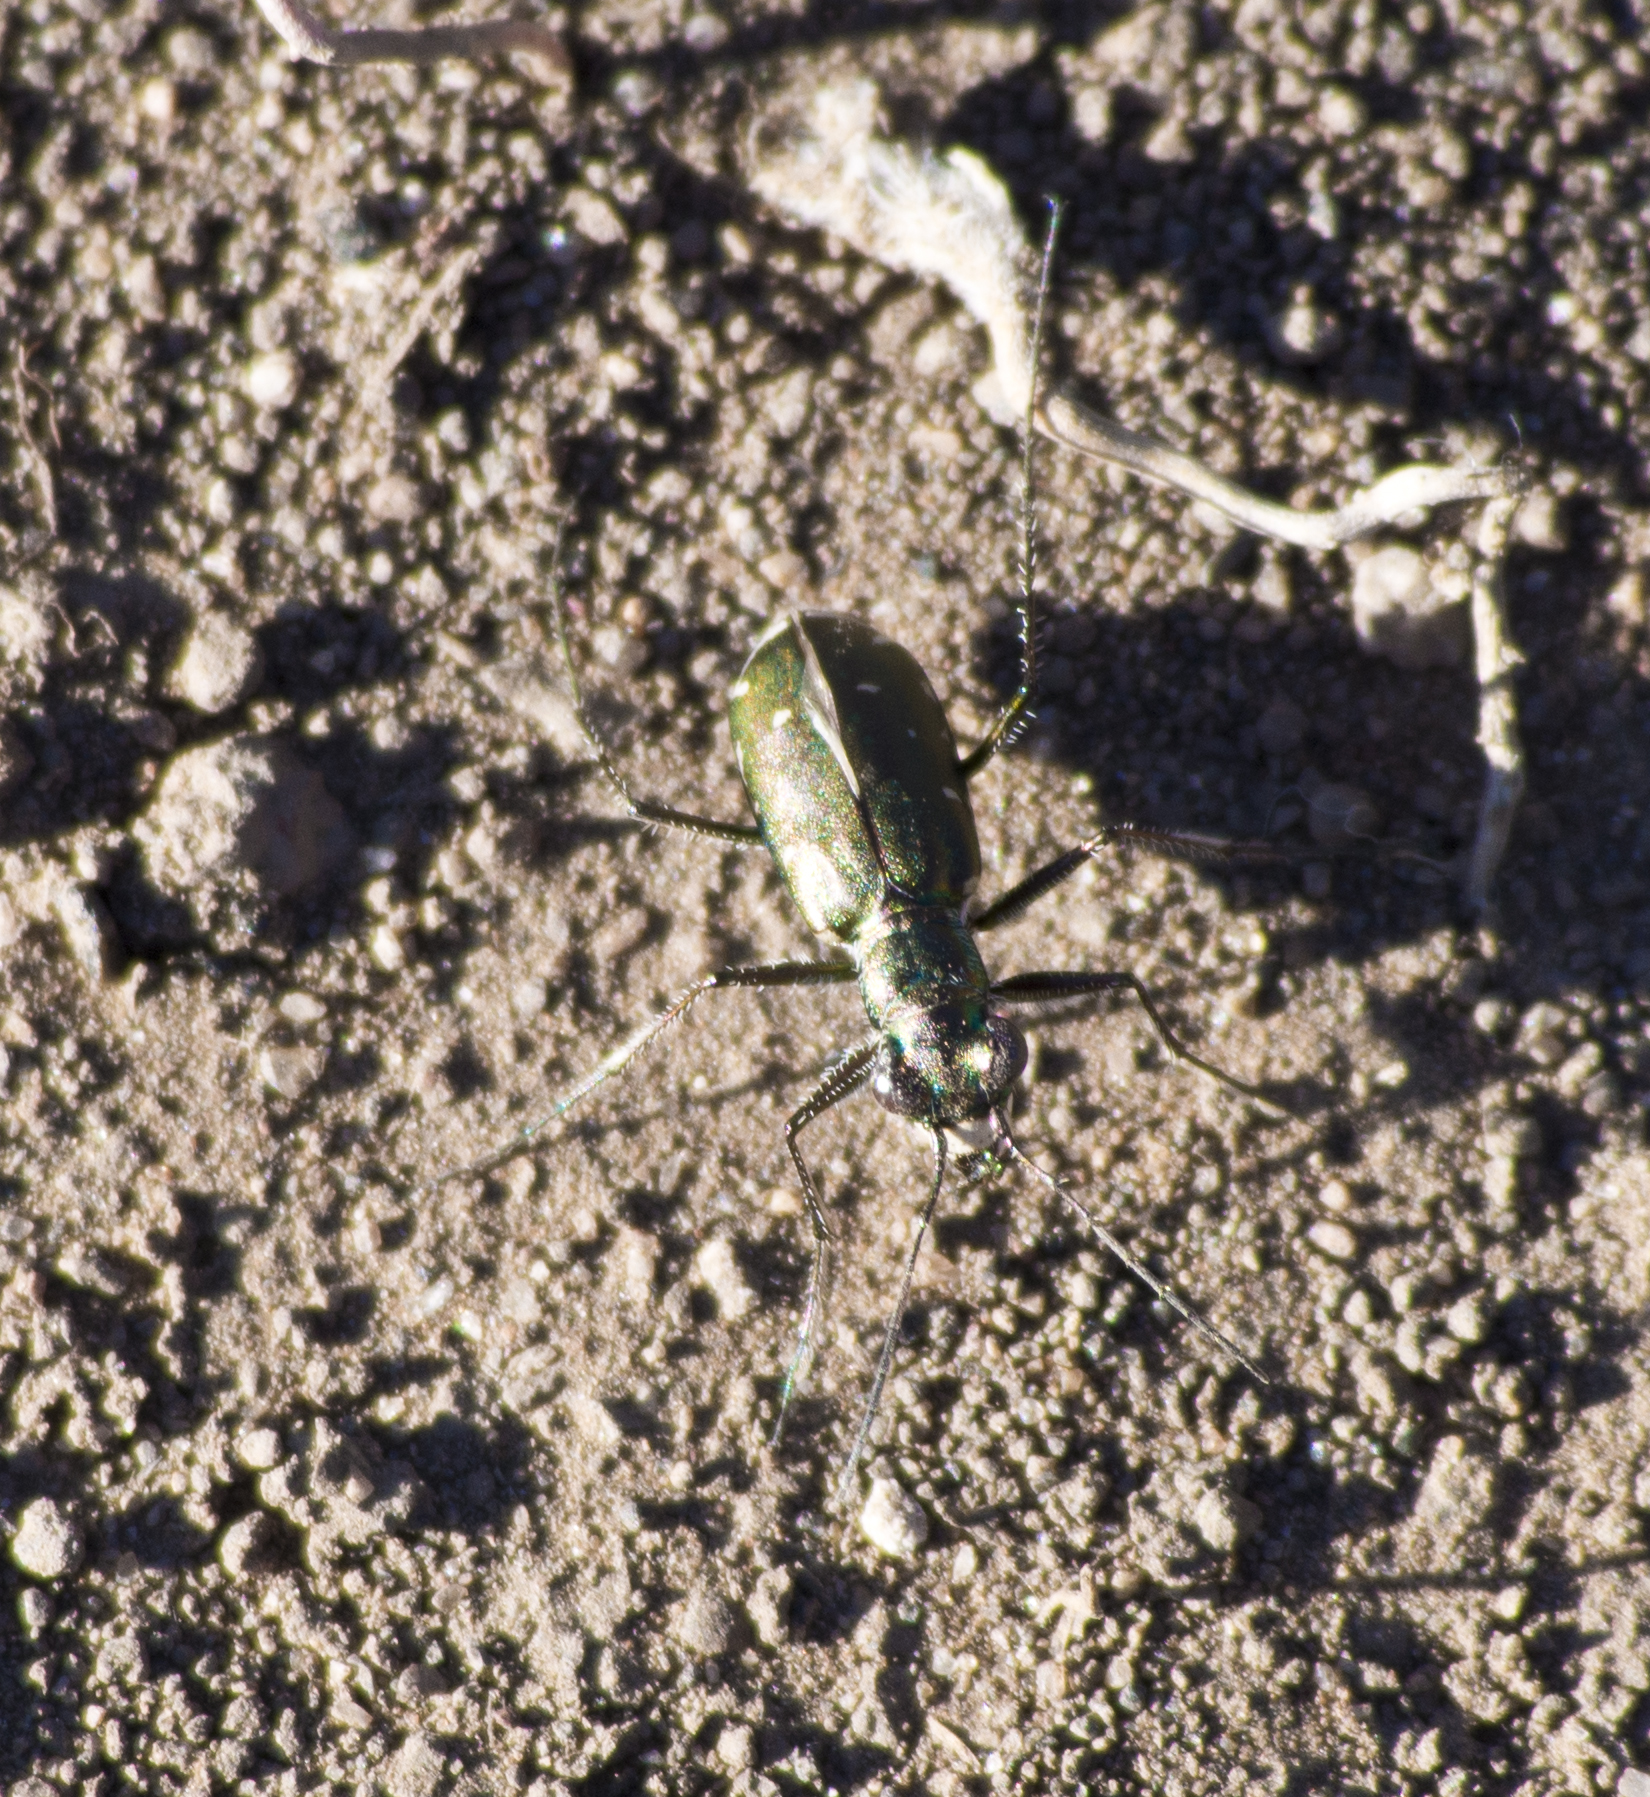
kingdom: Animalia
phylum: Arthropoda
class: Insecta
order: Coleoptera
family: Carabidae
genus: Cicindela
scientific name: Cicindela punctulata
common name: Punctured tiger beetle
